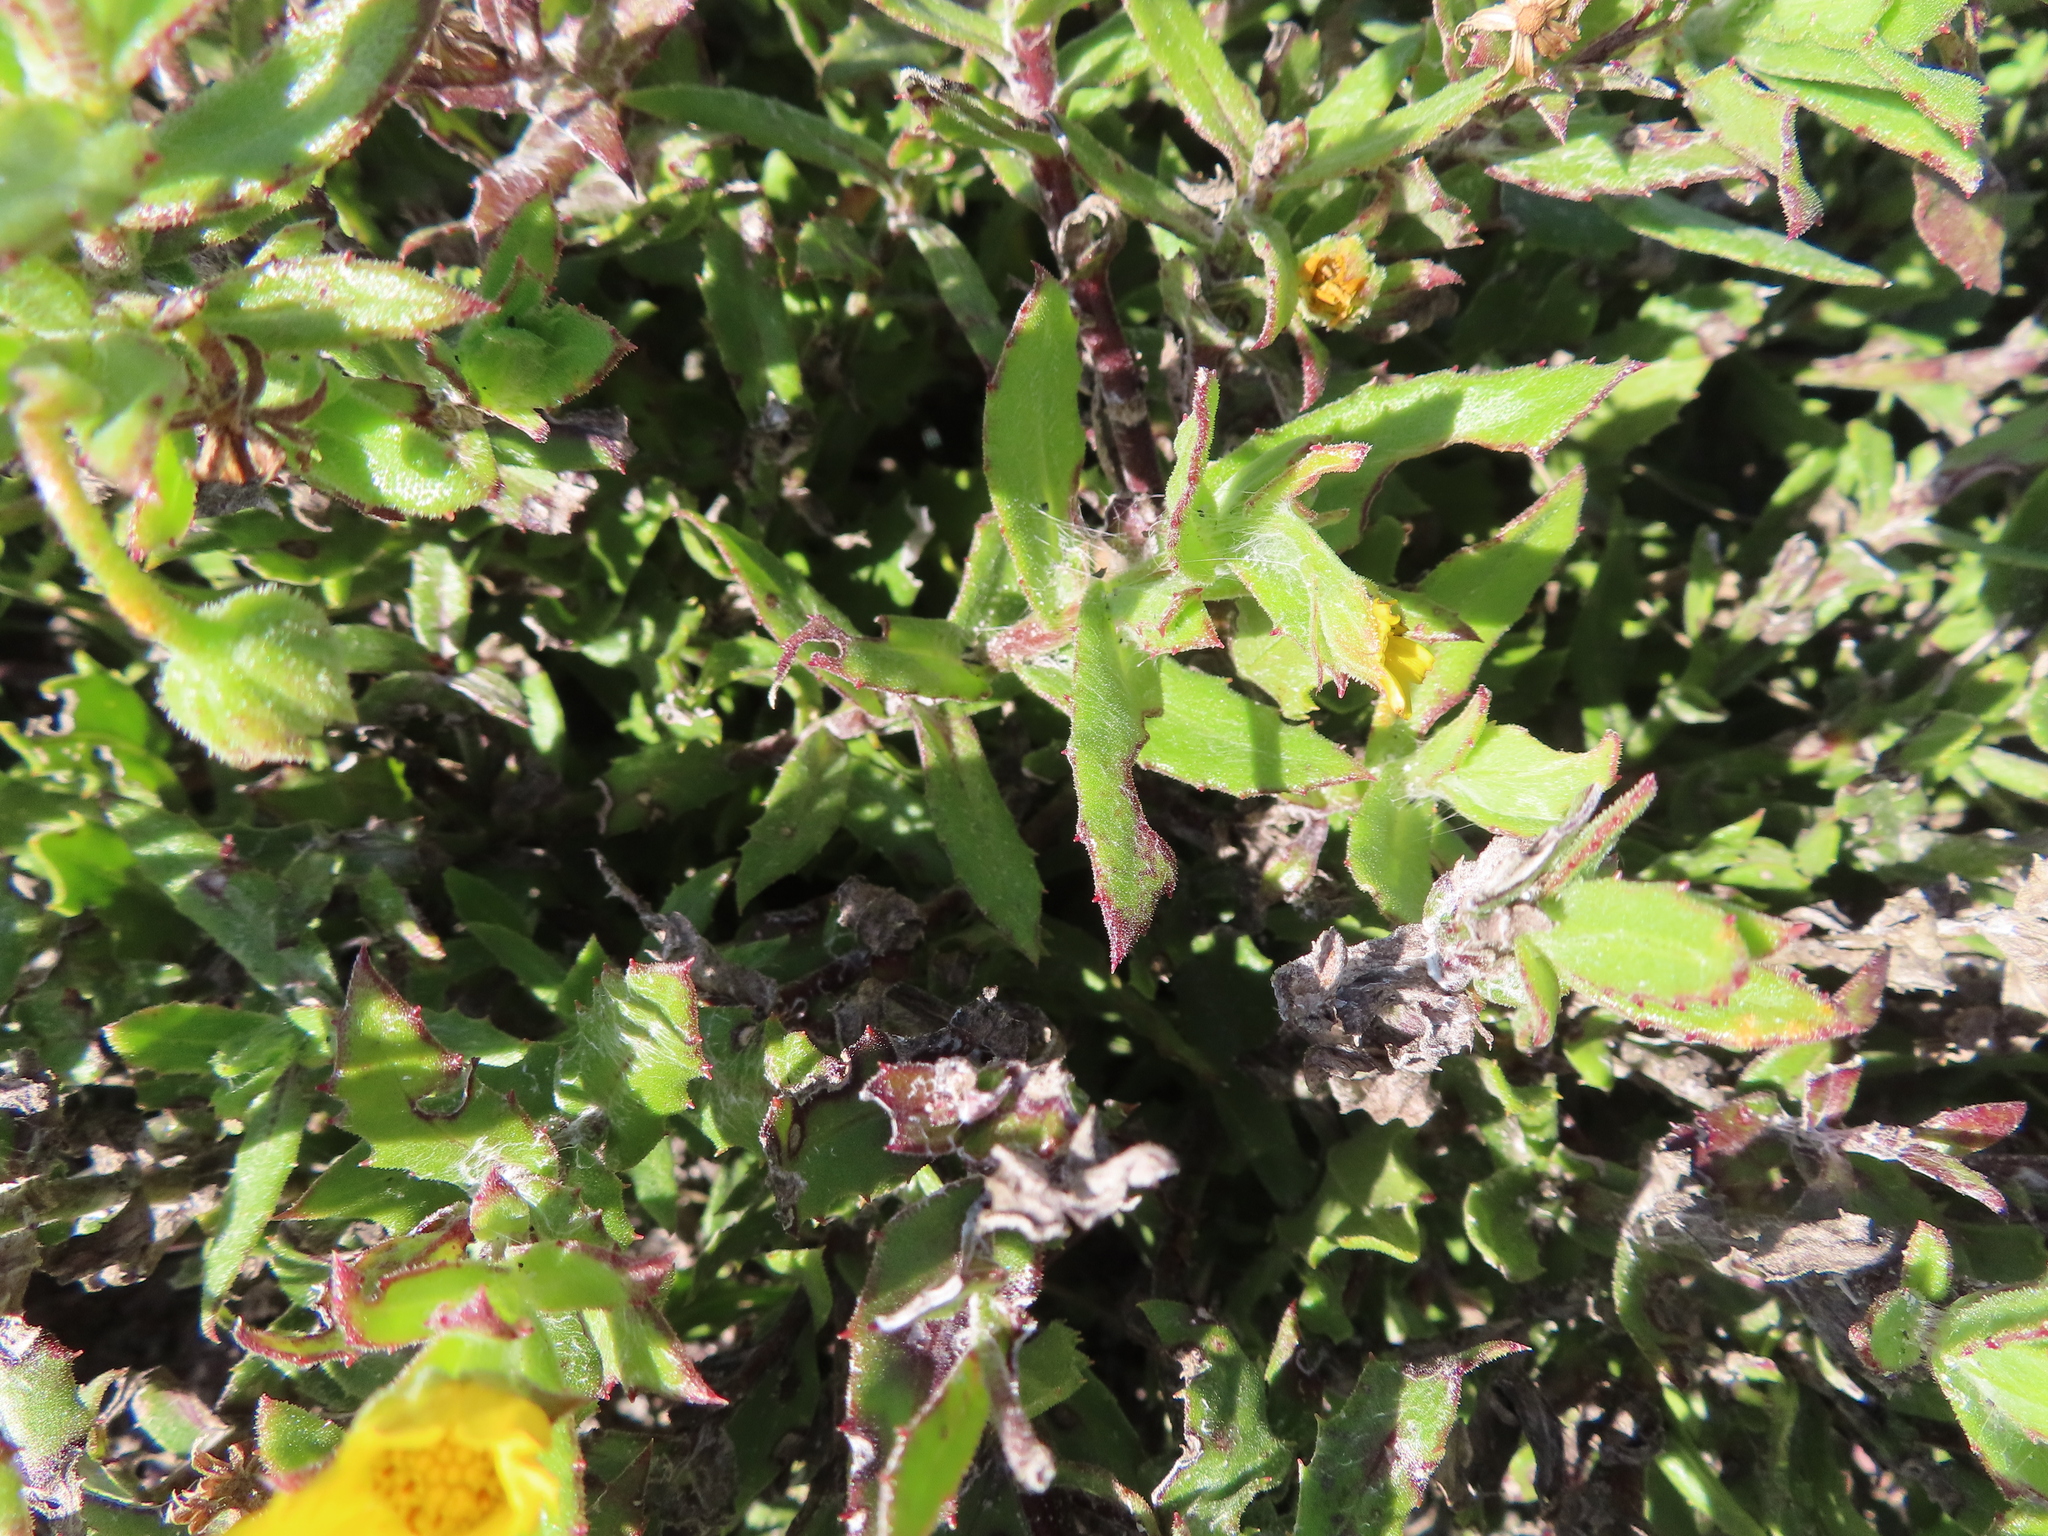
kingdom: Plantae
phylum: Tracheophyta
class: Magnoliopsida
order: Asterales
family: Asteraceae
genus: Osteospermum
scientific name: Osteospermum ilicifolium
